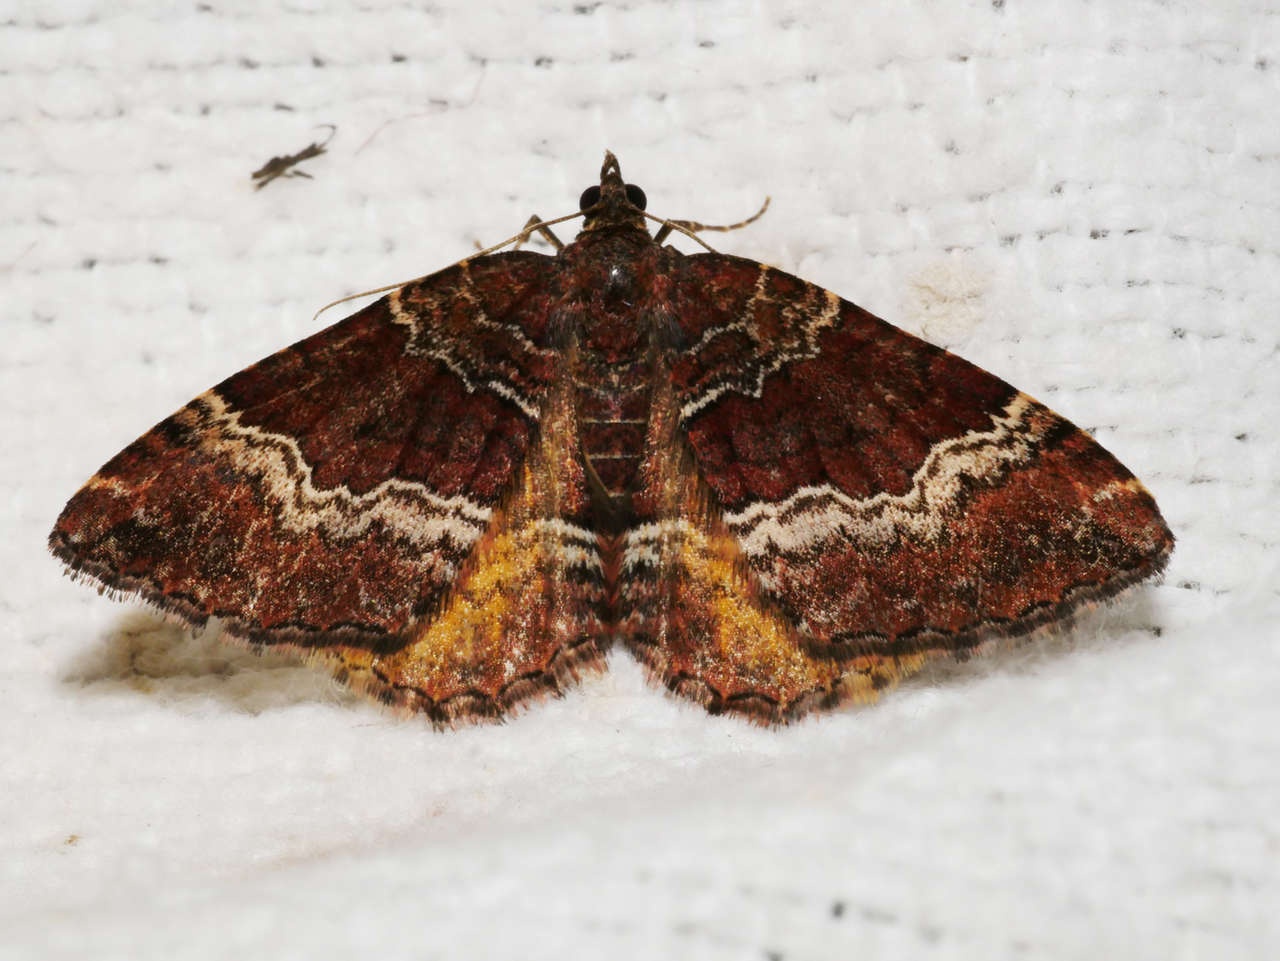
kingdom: Animalia
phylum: Arthropoda
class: Insecta
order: Lepidoptera
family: Geometridae
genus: Chrysolarentia
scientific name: Chrysolarentia euphileta
